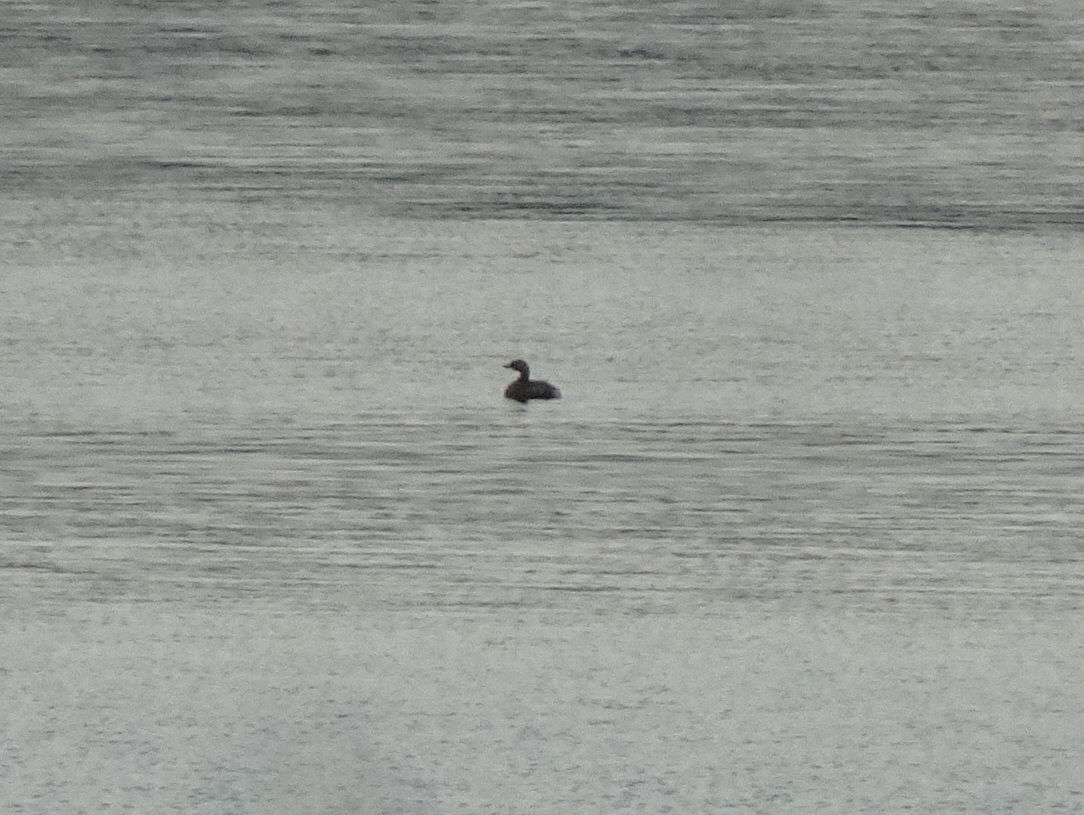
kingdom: Animalia
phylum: Chordata
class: Aves
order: Podicipediformes
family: Podicipedidae
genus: Podilymbus
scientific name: Podilymbus podiceps
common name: Pied-billed grebe
